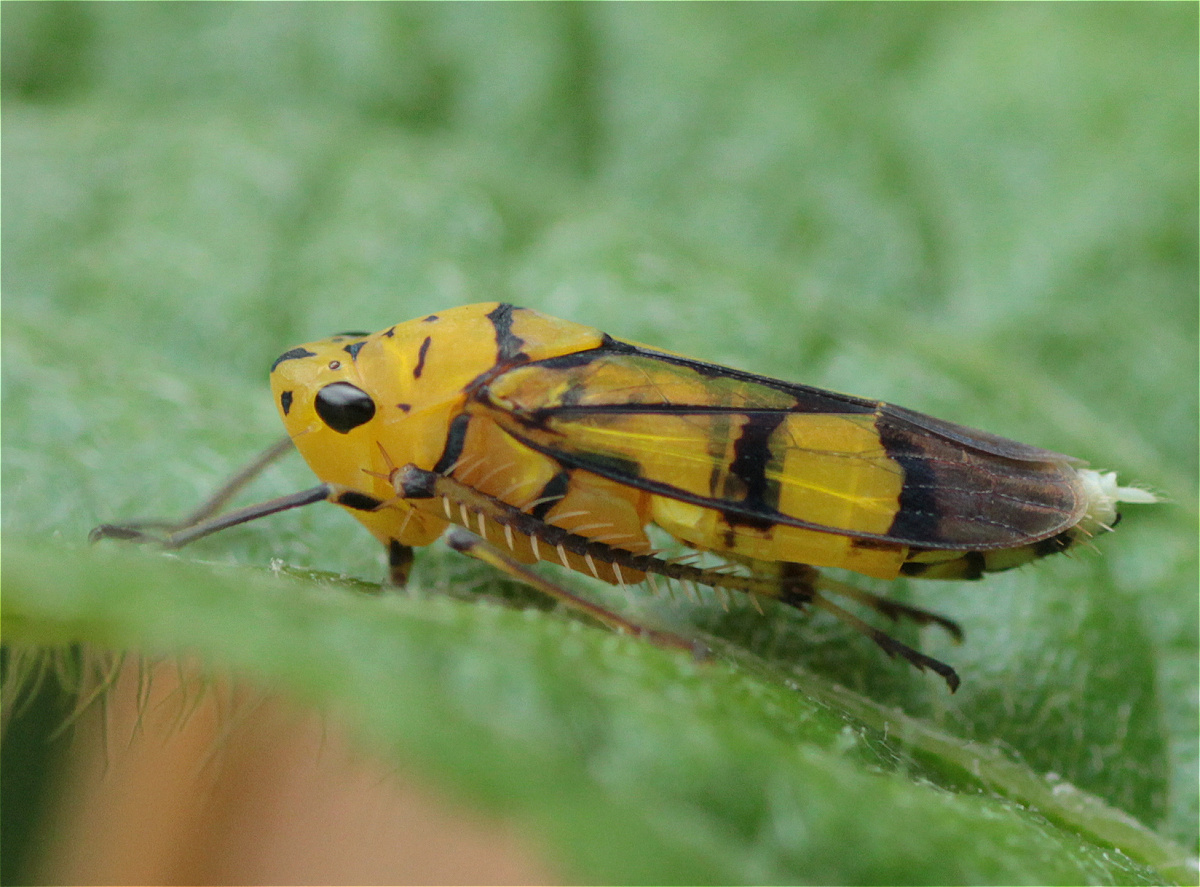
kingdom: Animalia
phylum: Arthropoda
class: Insecta
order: Hemiptera
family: Cicadellidae
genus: Parathona
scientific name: Parathona cayennensis
